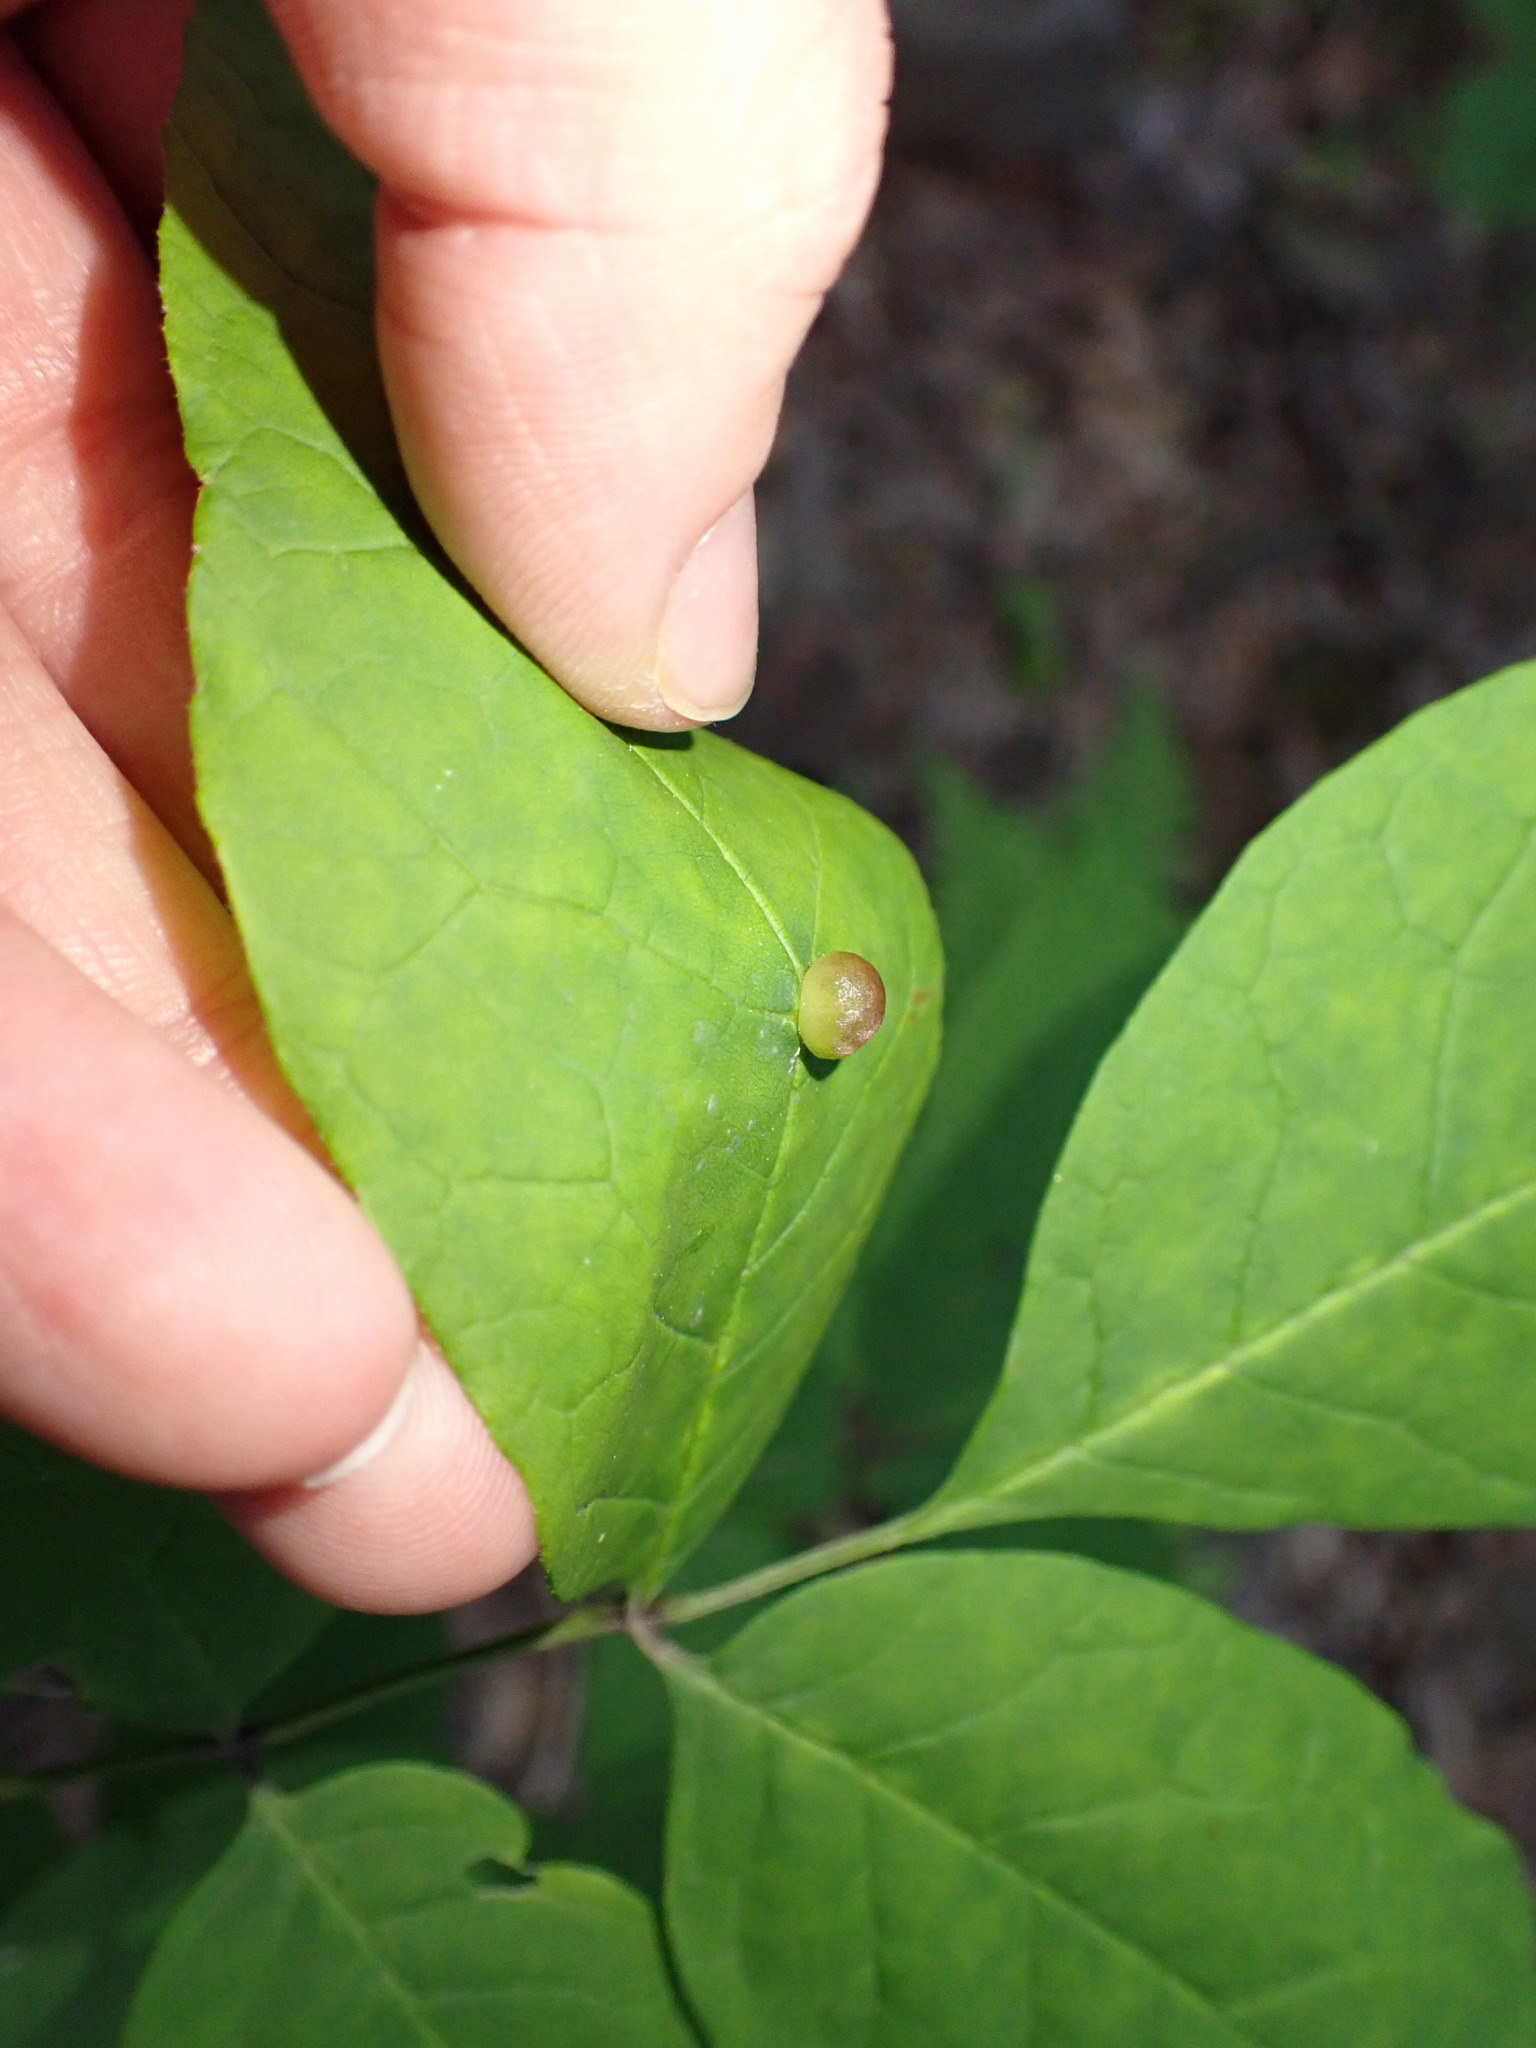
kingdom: Animalia
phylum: Arthropoda
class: Insecta
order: Diptera
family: Cecidomyiidae
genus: Dasineura
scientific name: Dasineura pellex
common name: Ash bullet gall midge
